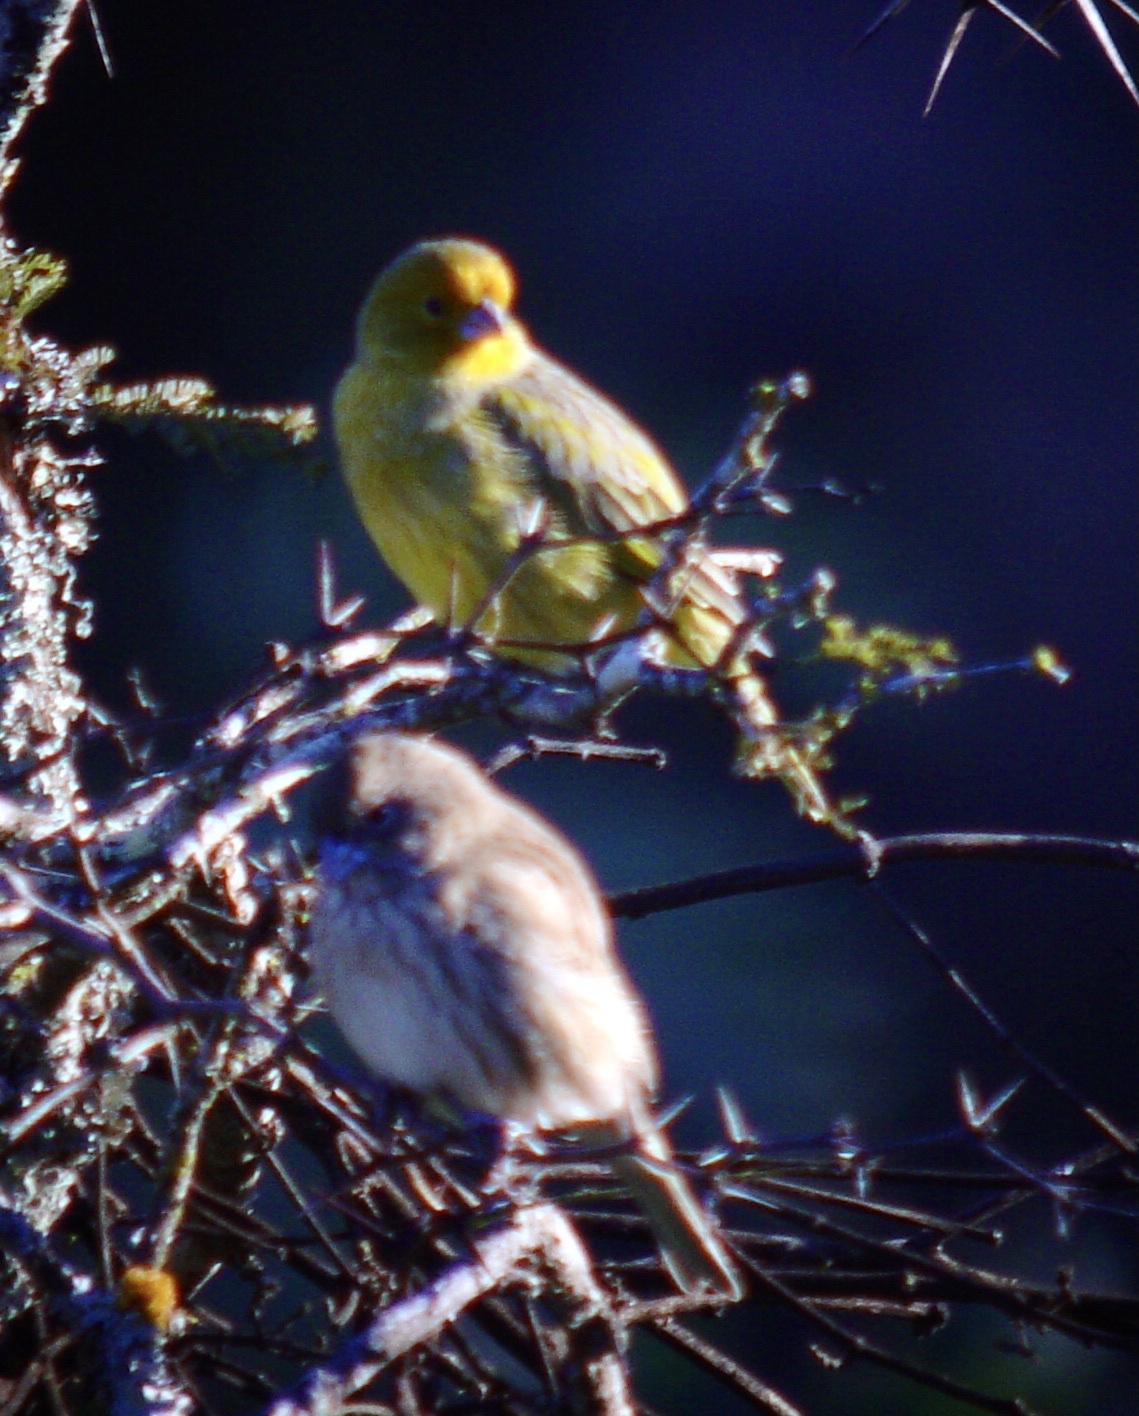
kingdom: Animalia
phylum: Chordata
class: Aves
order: Passeriformes
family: Thraupidae
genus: Sicalis
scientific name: Sicalis flaveola
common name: Saffron finch
